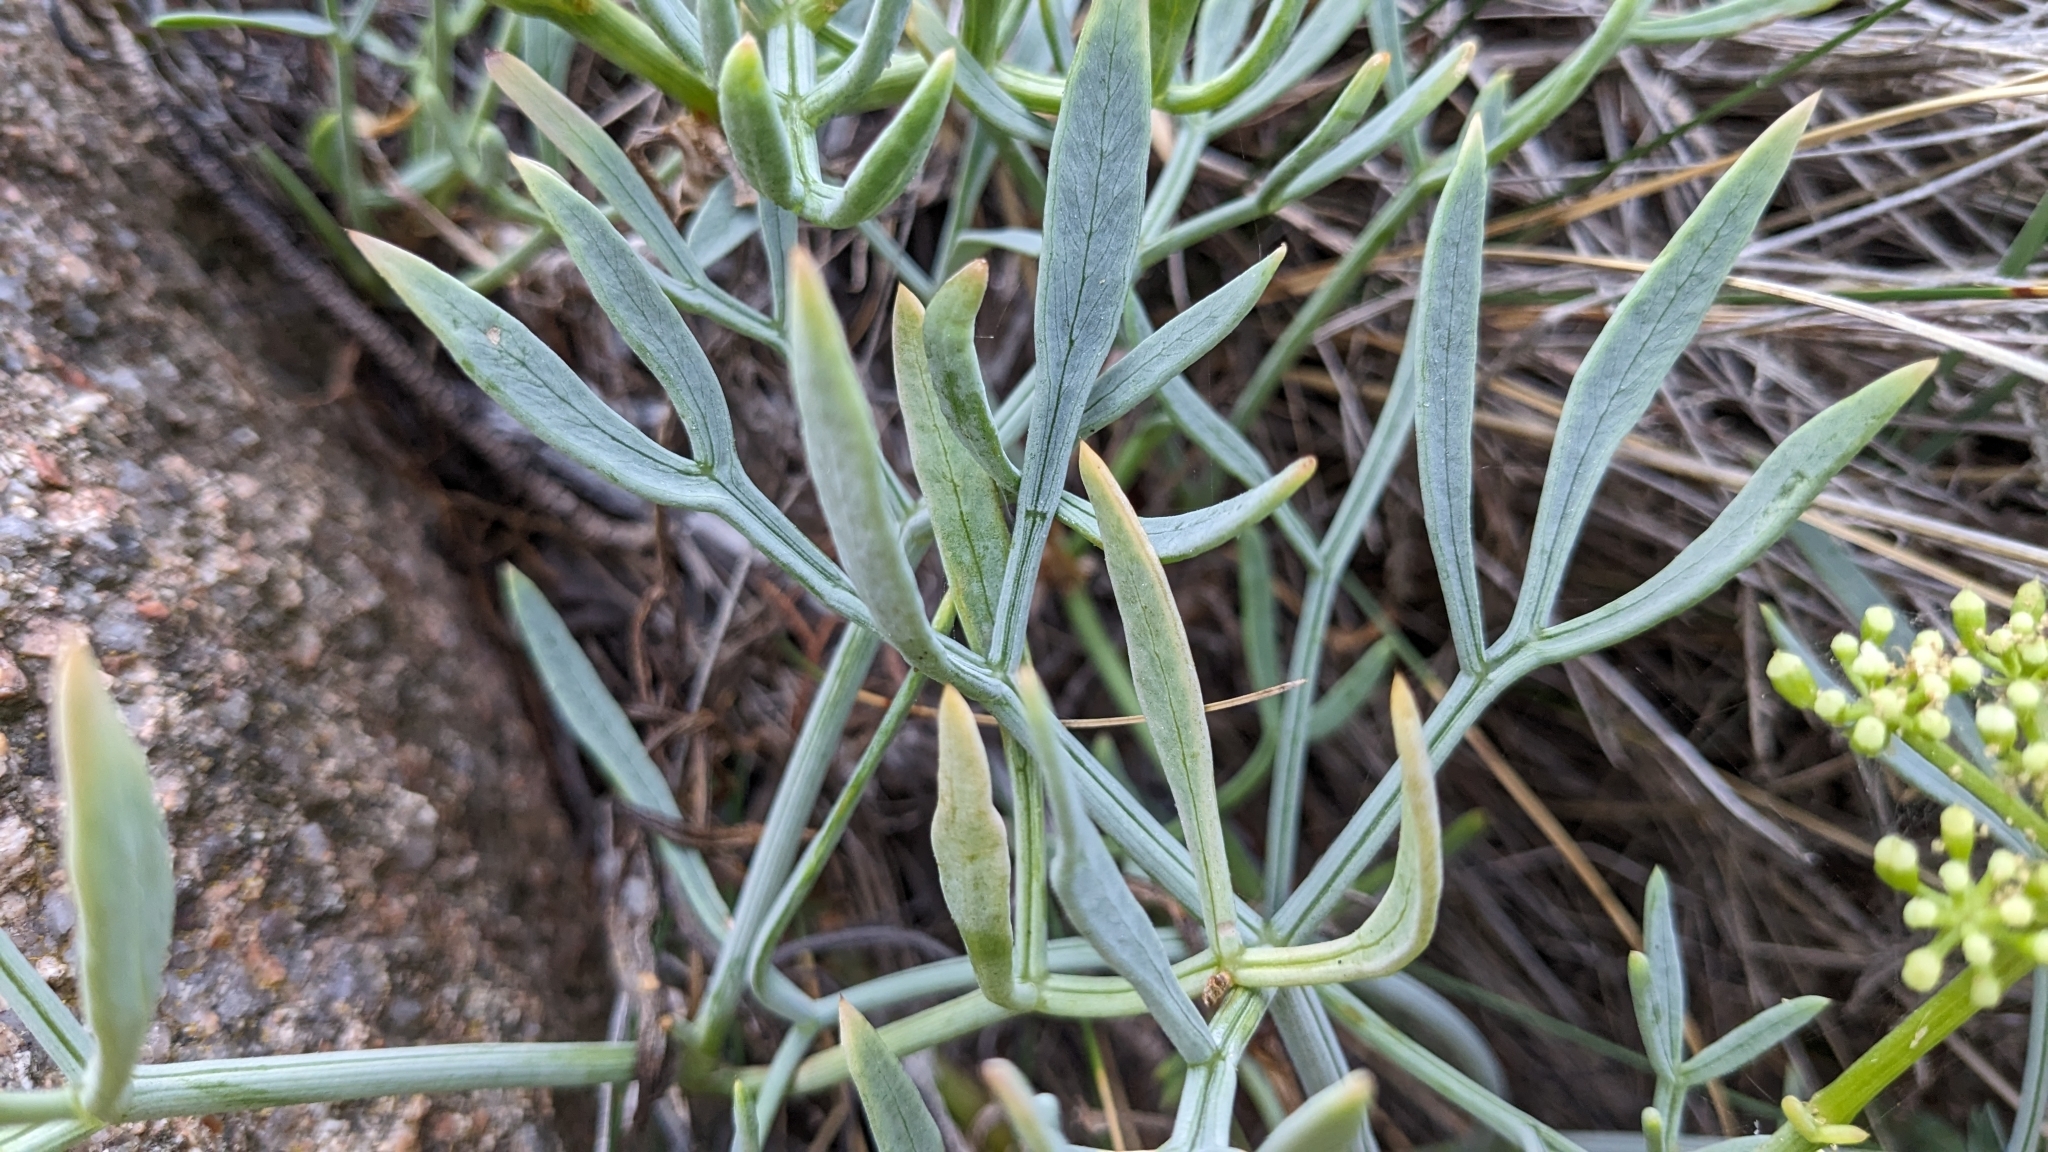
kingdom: Plantae
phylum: Tracheophyta
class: Magnoliopsida
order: Apiales
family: Apiaceae
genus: Crithmum
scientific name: Crithmum maritimum
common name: Rock samphire
